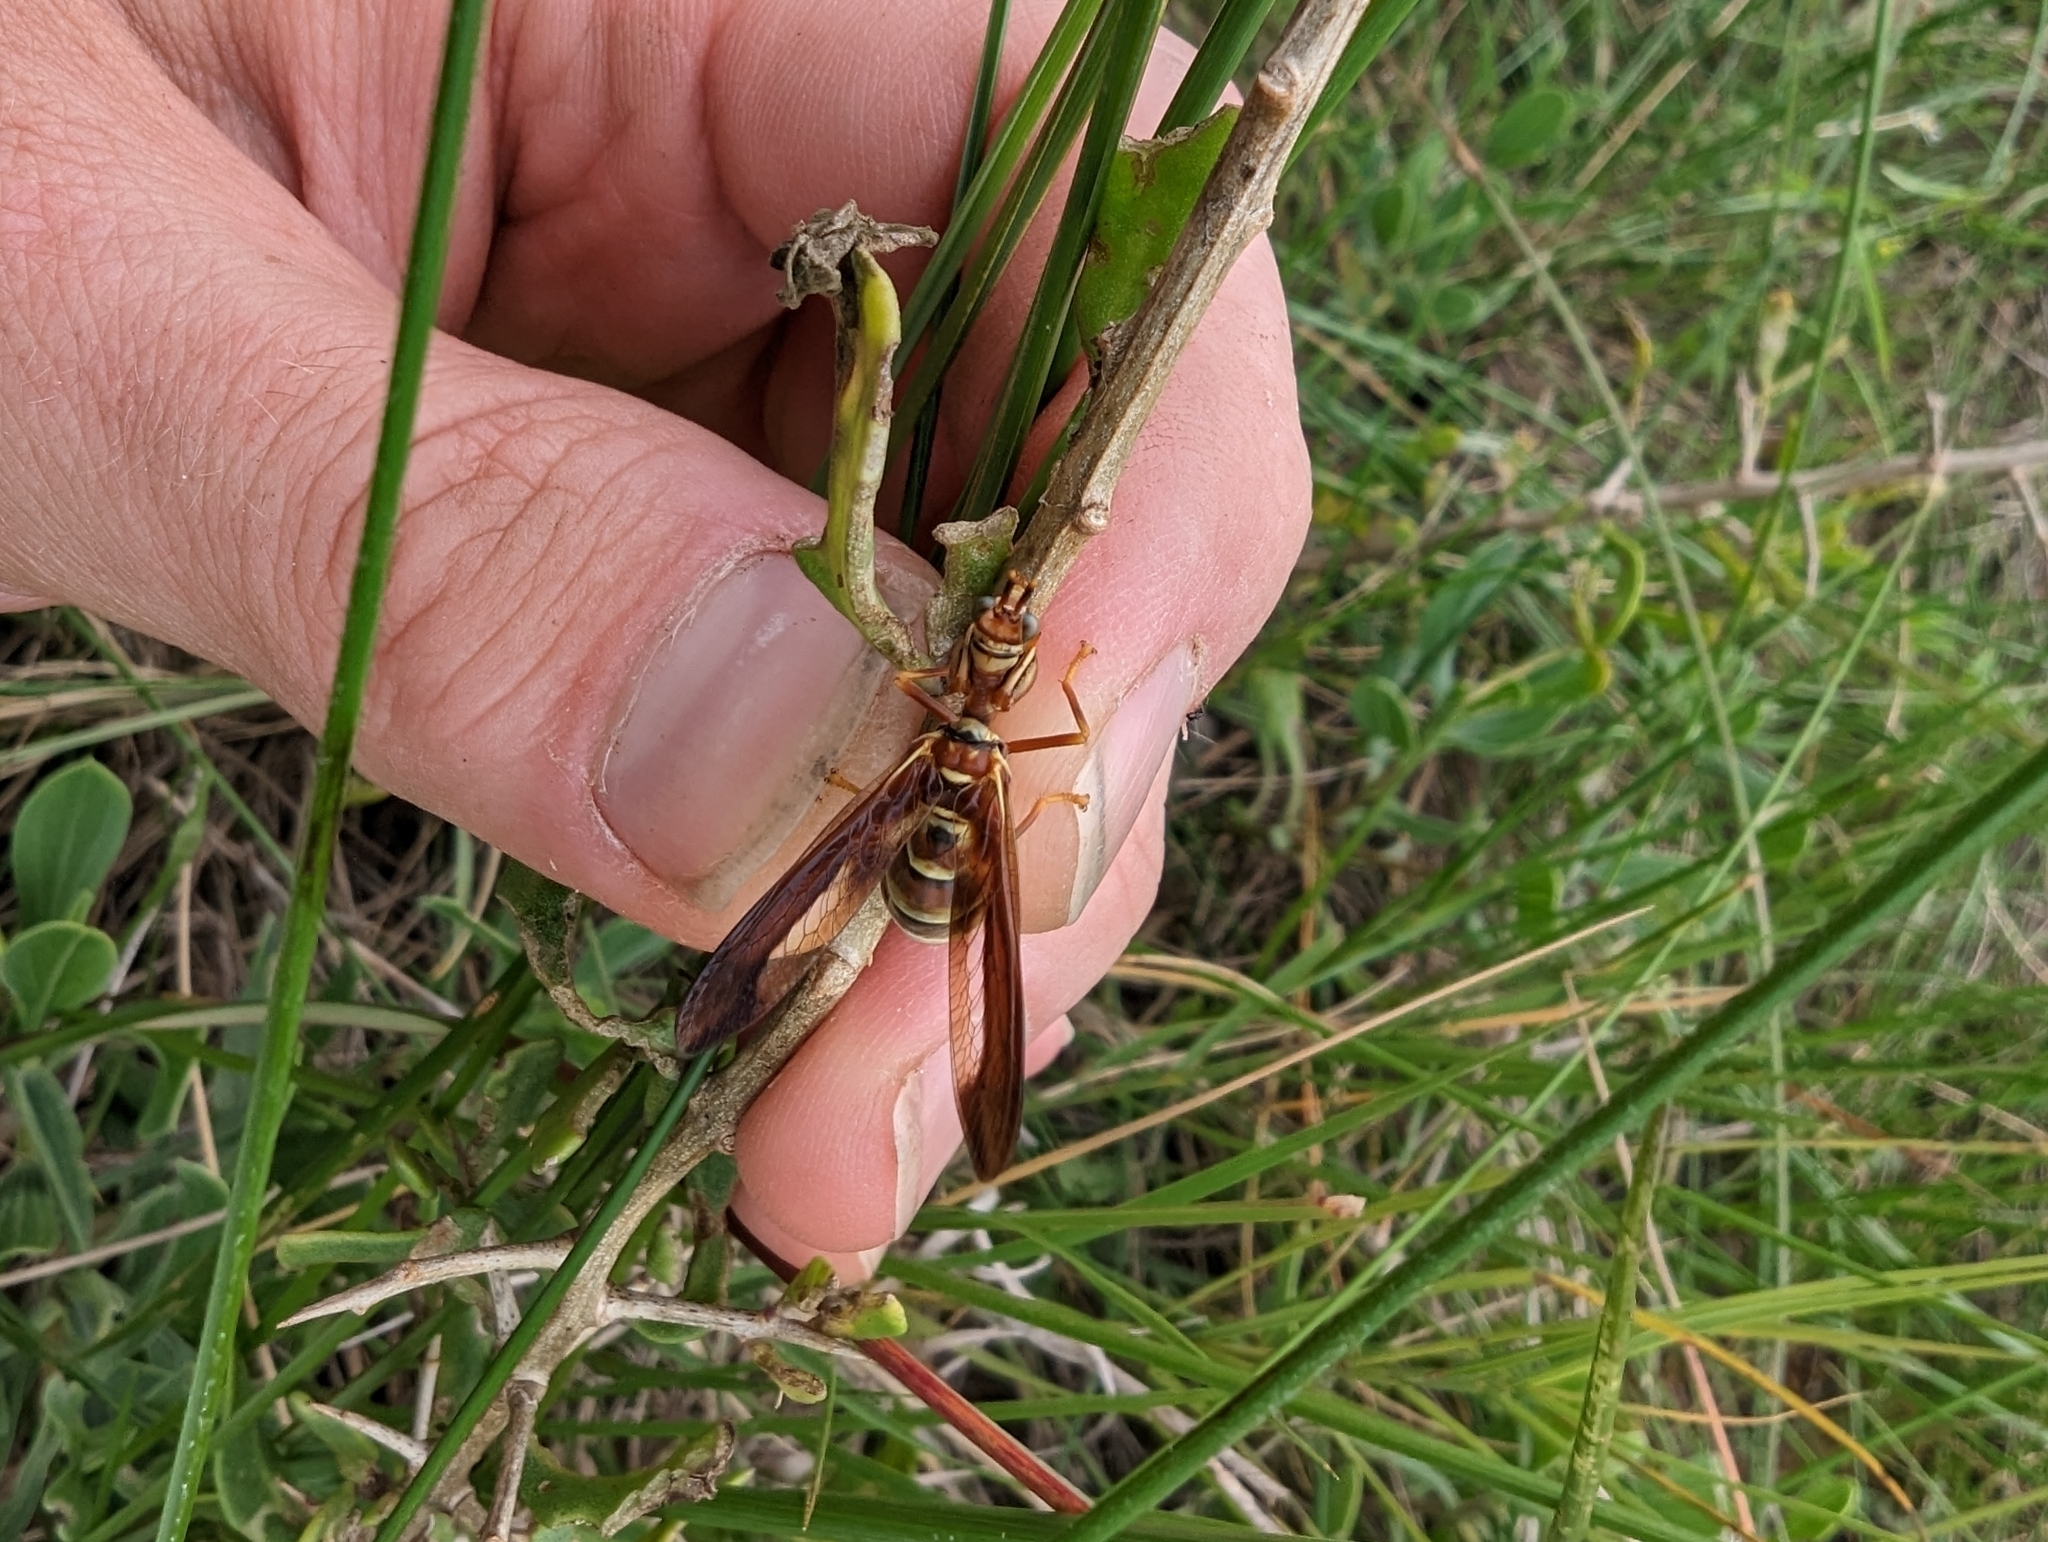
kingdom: Animalia
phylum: Arthropoda
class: Insecta
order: Neuroptera
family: Mantispidae
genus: Climaciella
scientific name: Climaciella brunnea
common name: Brown wasp mantidfly
